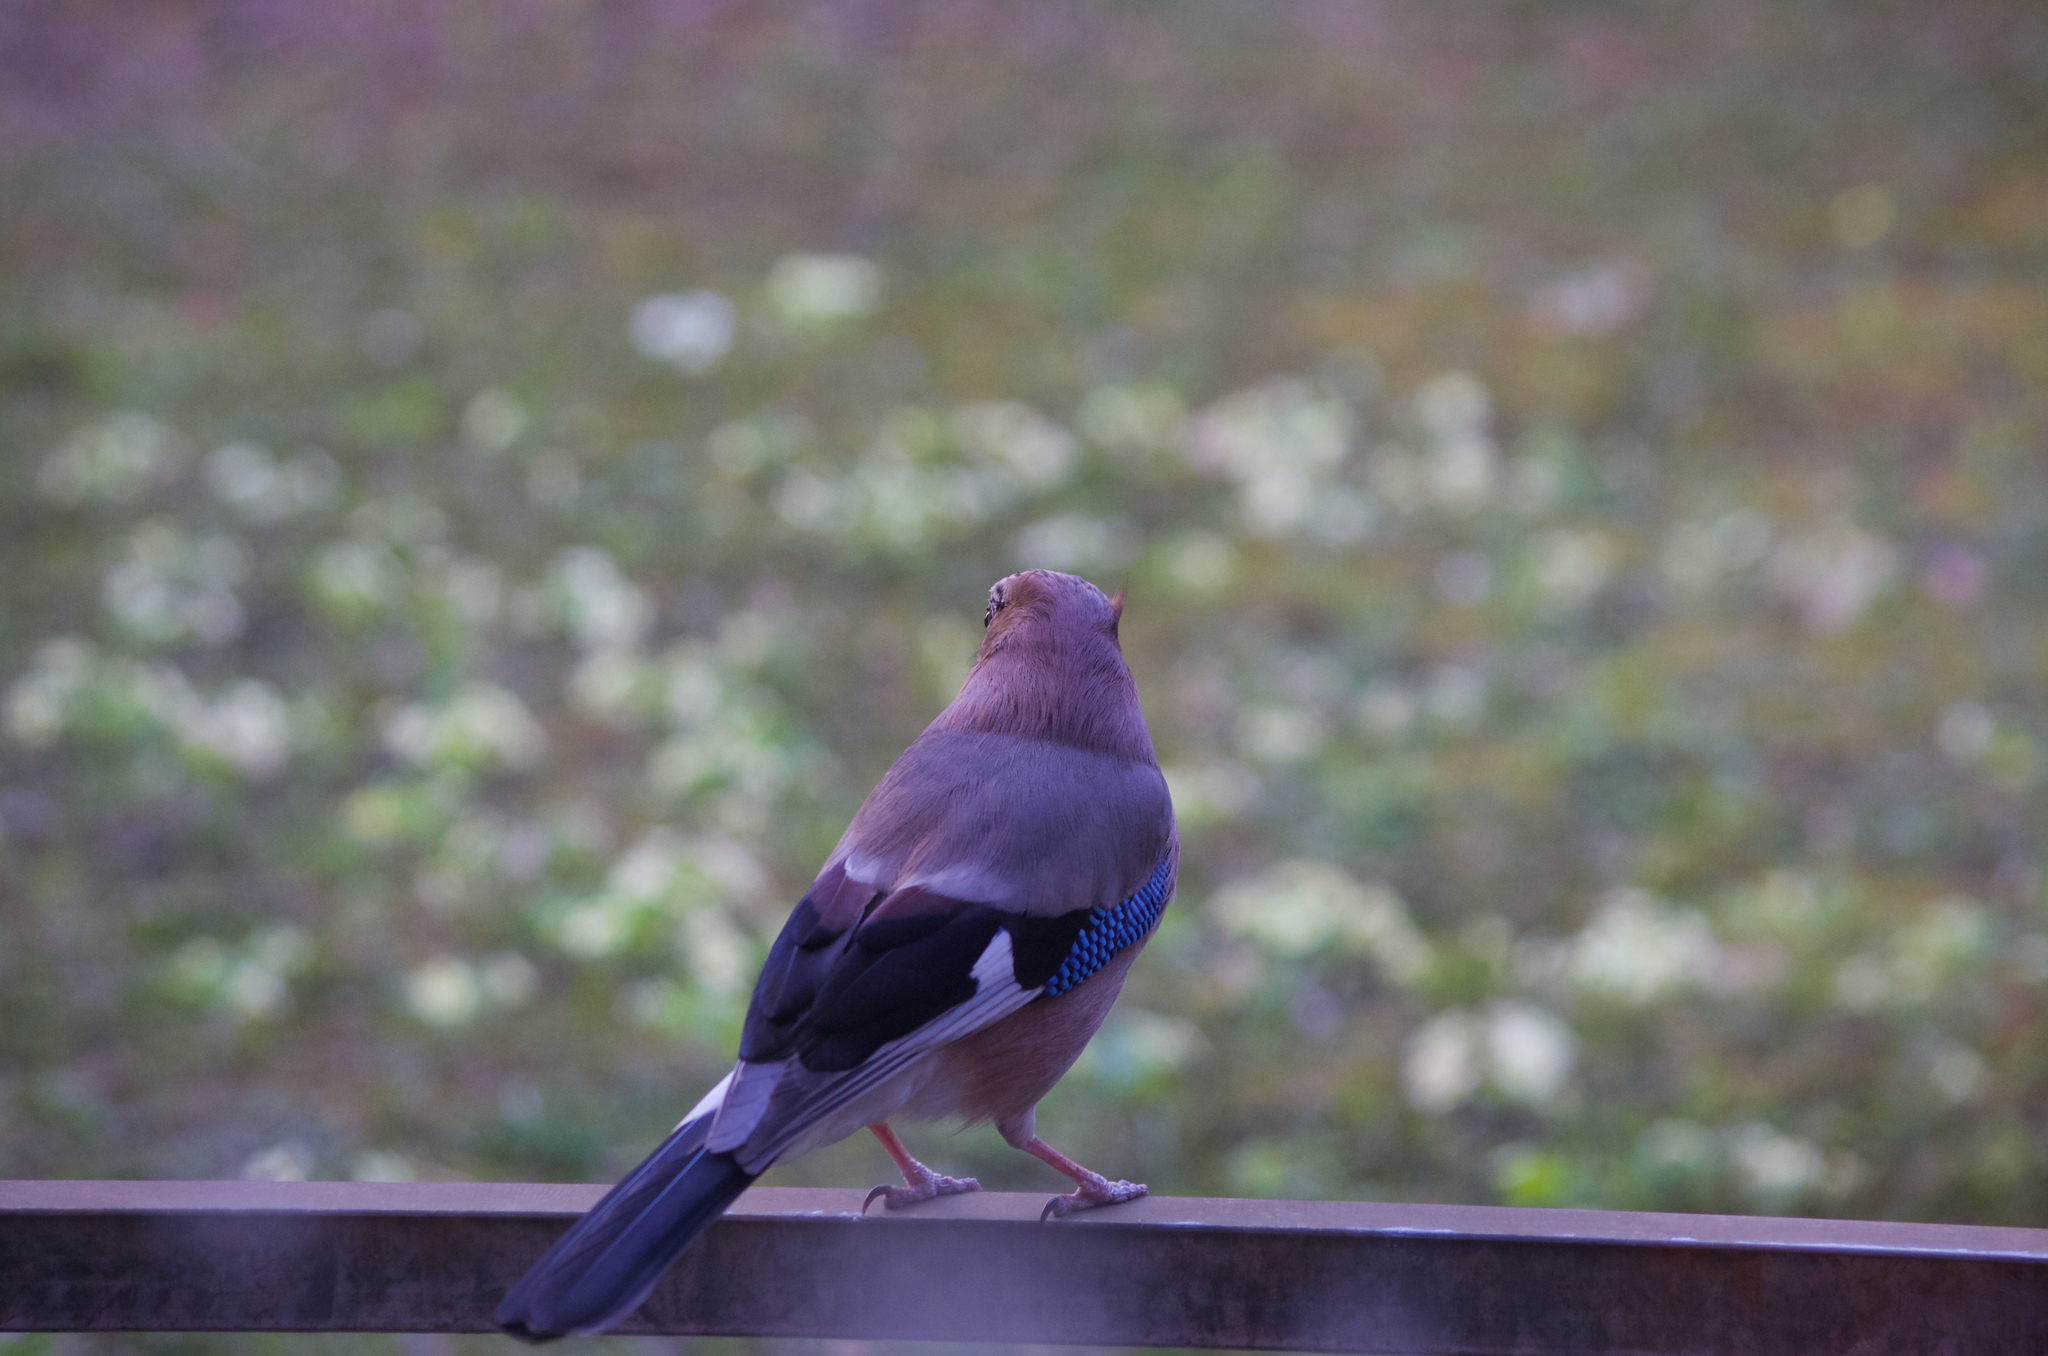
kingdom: Animalia
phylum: Chordata
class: Aves
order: Passeriformes
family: Corvidae
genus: Garrulus
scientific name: Garrulus glandarius
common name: Eurasian jay
